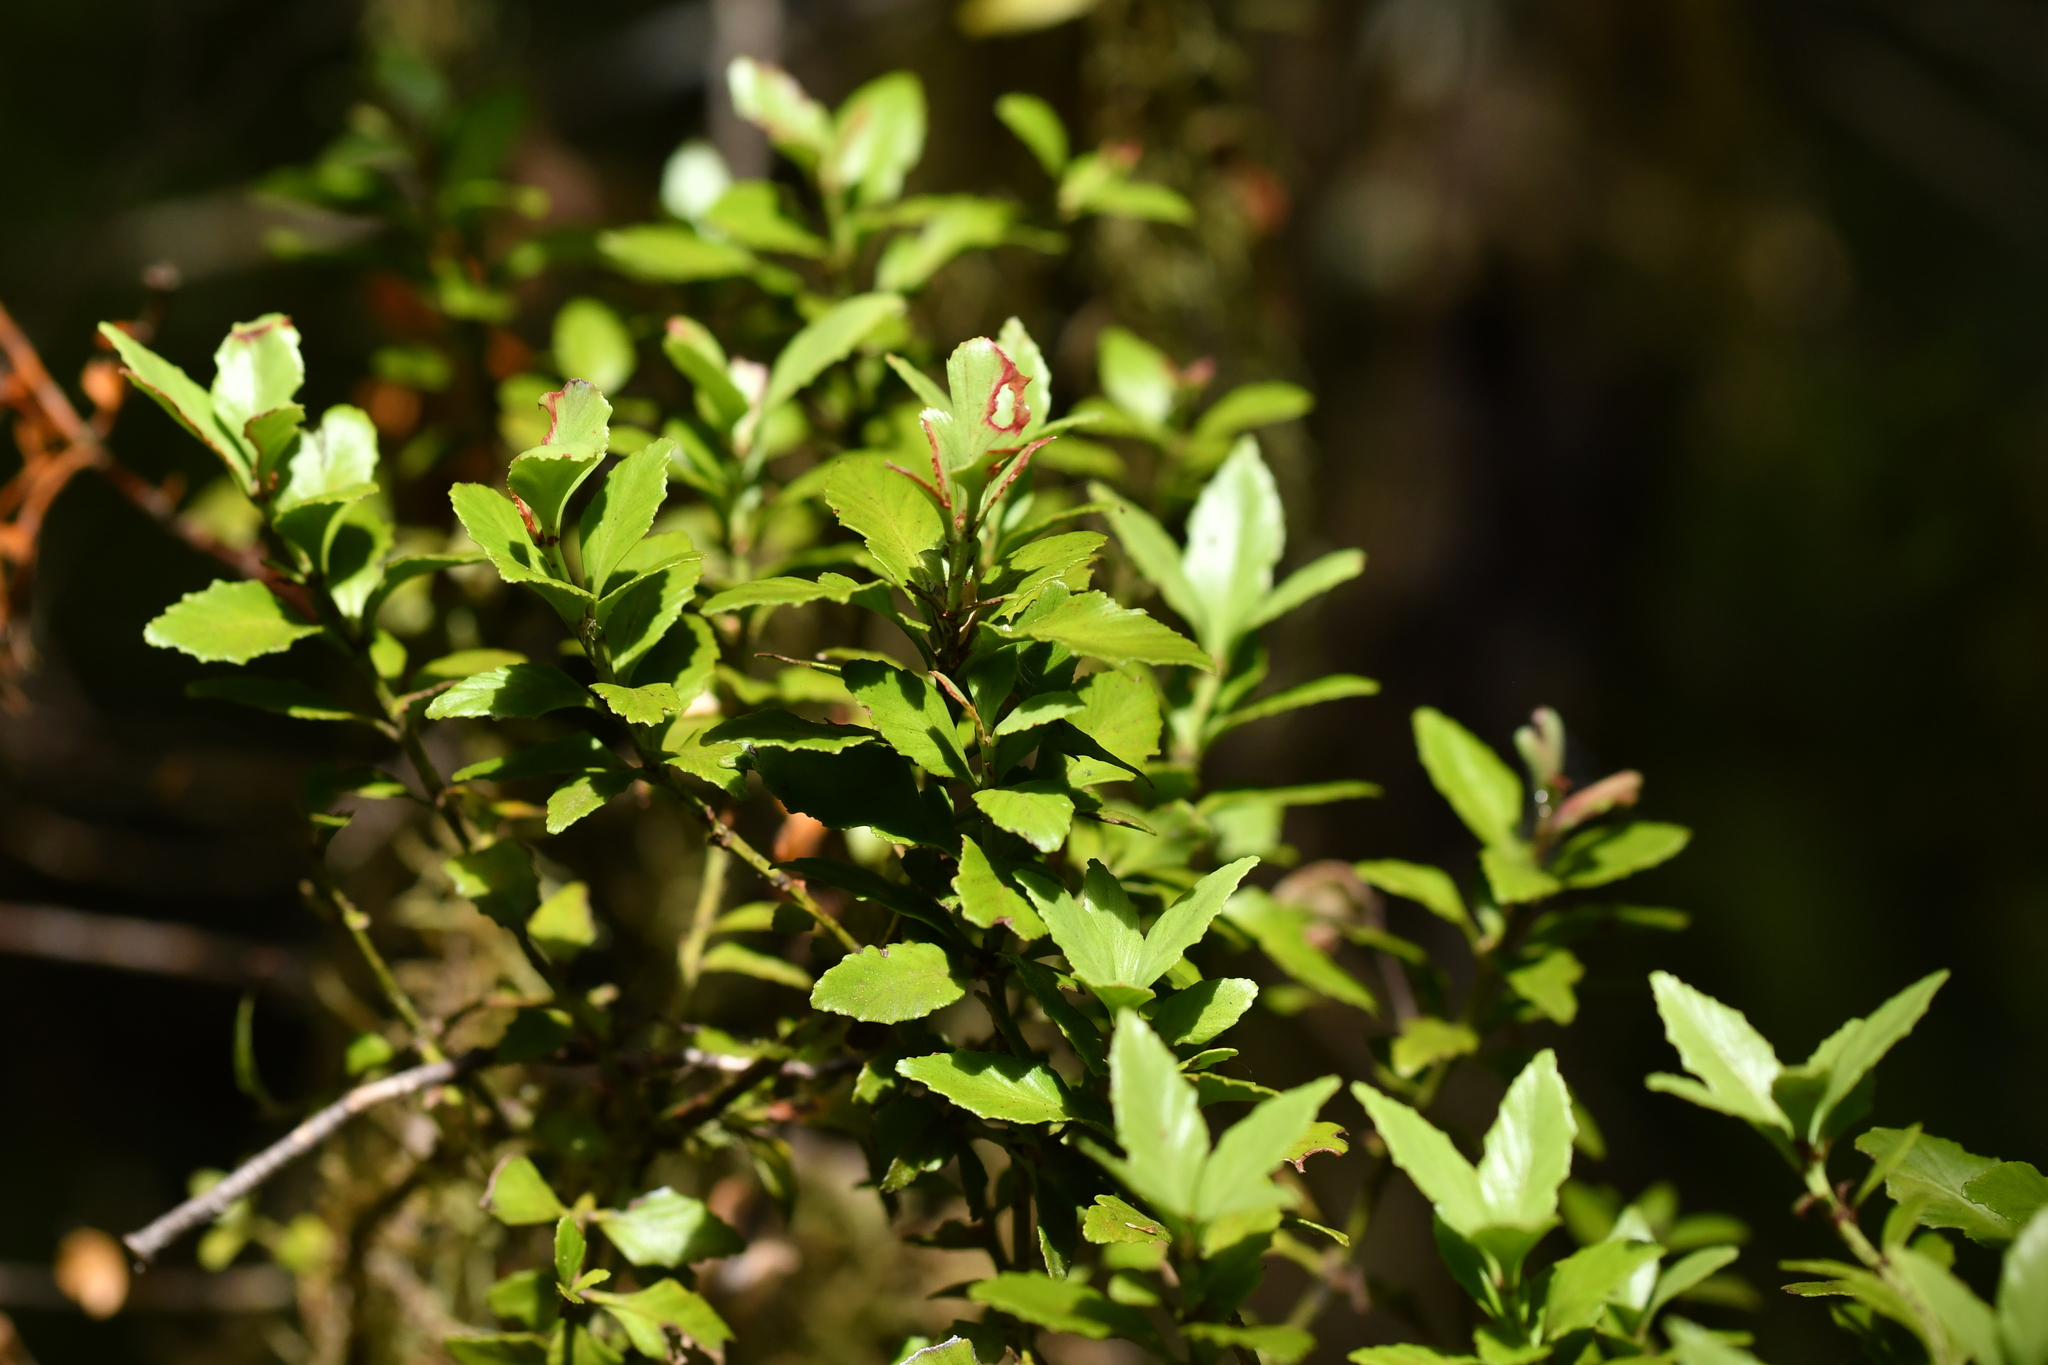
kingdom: Plantae
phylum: Tracheophyta
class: Pinopsida
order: Pinales
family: Phyllocladaceae
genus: Phyllocladus
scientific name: Phyllocladus trichomanoides
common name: Celery pine
